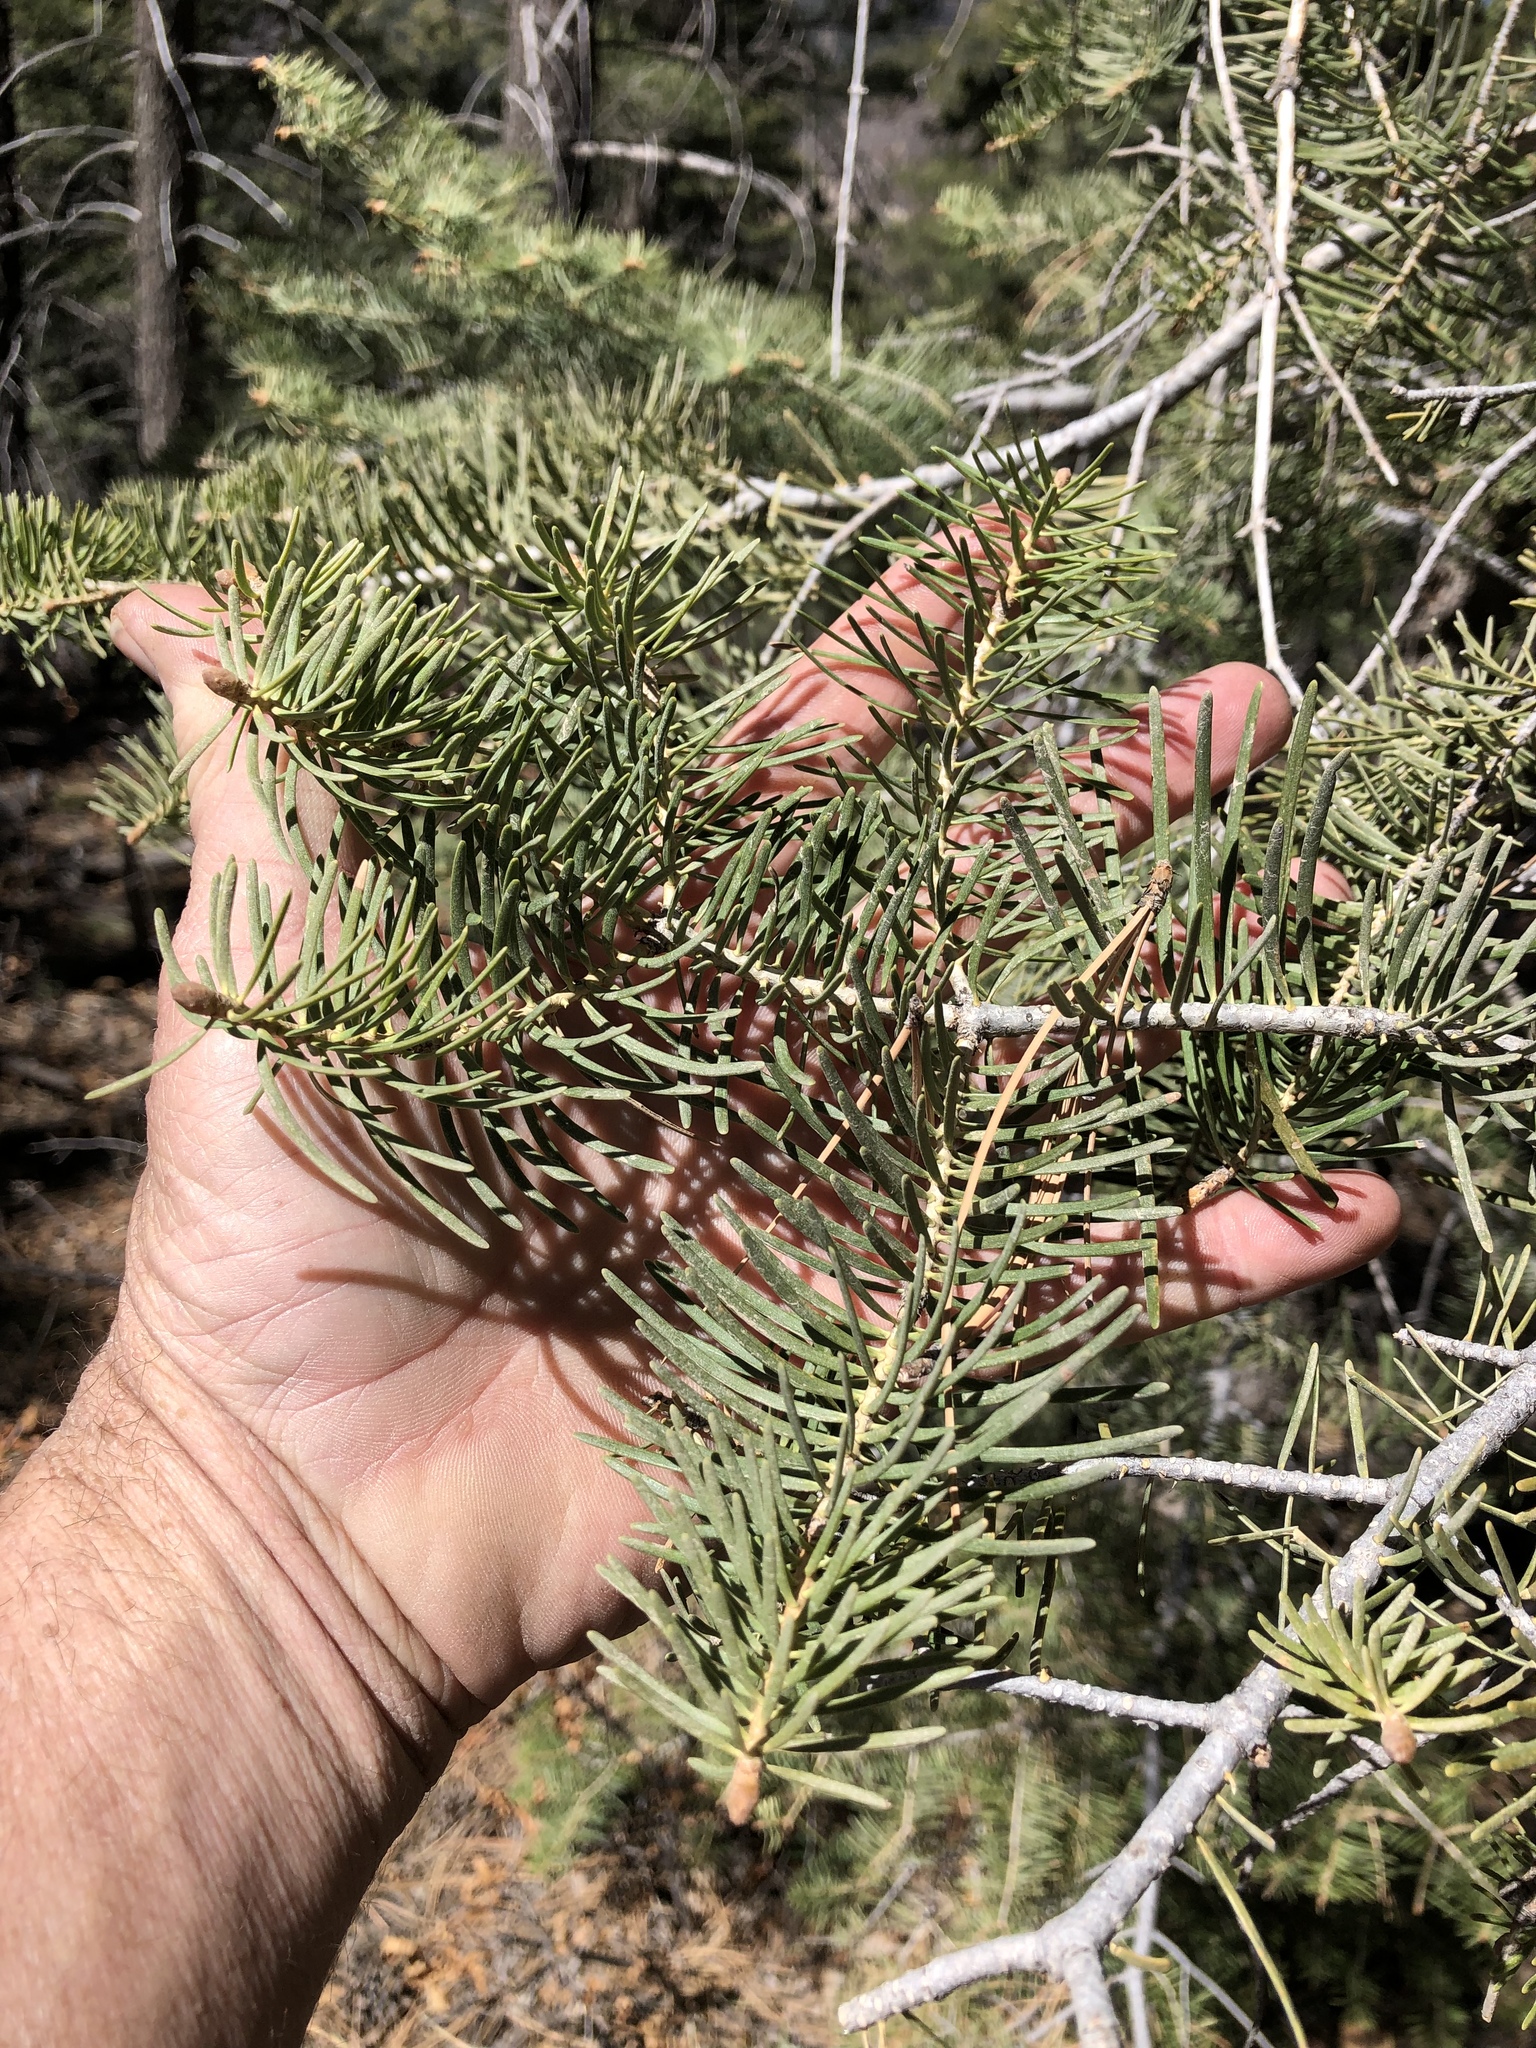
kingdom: Plantae
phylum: Tracheophyta
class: Pinopsida
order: Pinales
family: Pinaceae
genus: Abies
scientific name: Abies concolor
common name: Colorado fir
